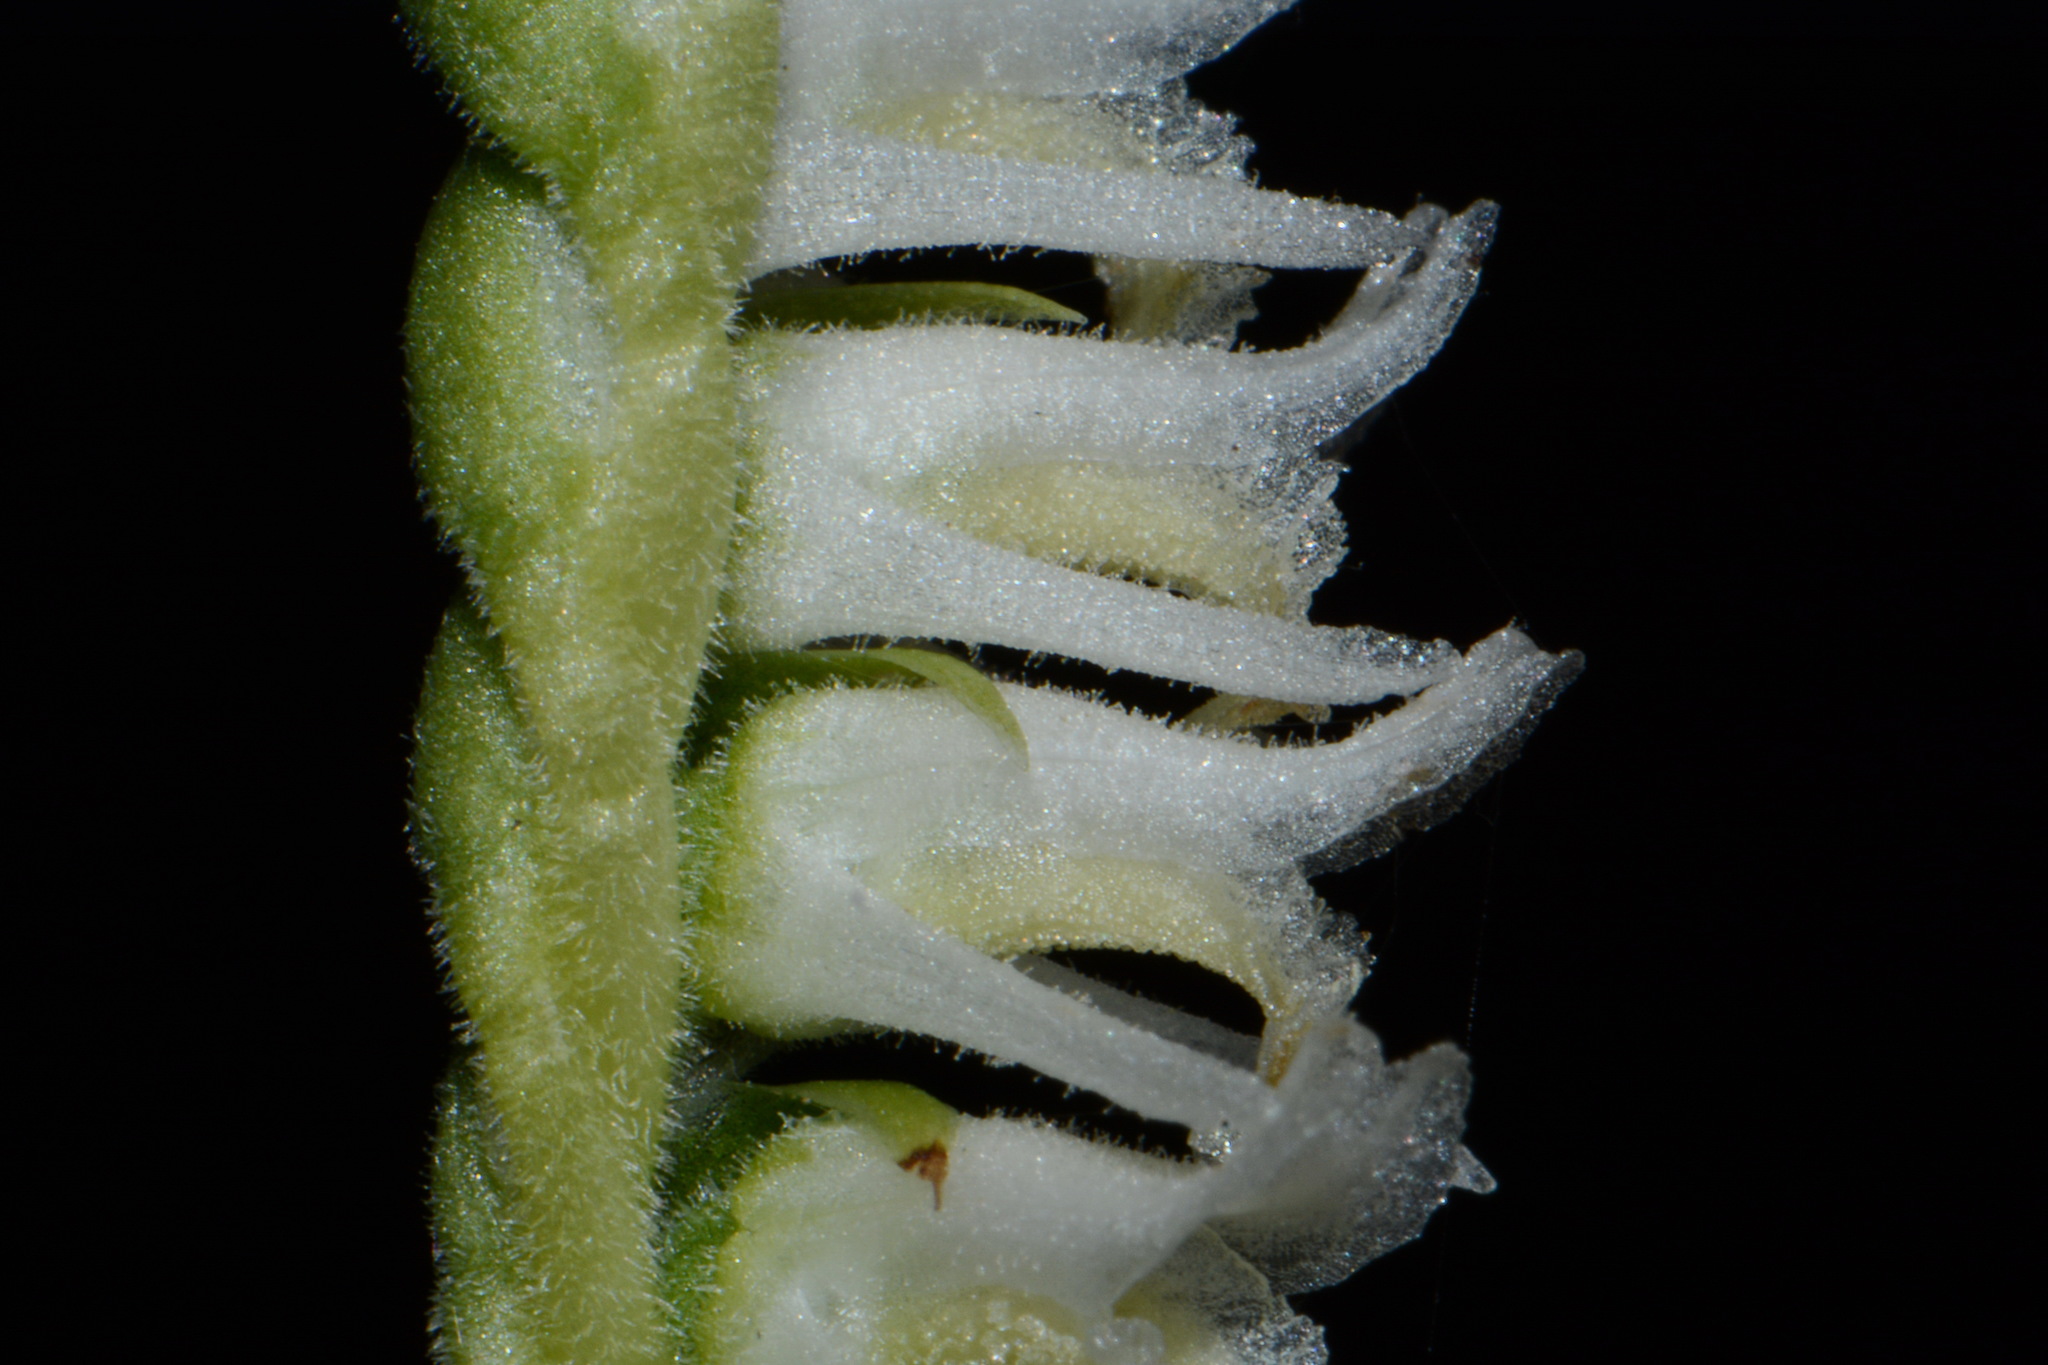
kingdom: Plantae
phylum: Tracheophyta
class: Liliopsida
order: Asparagales
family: Orchidaceae
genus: Spiranthes
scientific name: Spiranthes vernalis
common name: Spring ladies'-tresses
